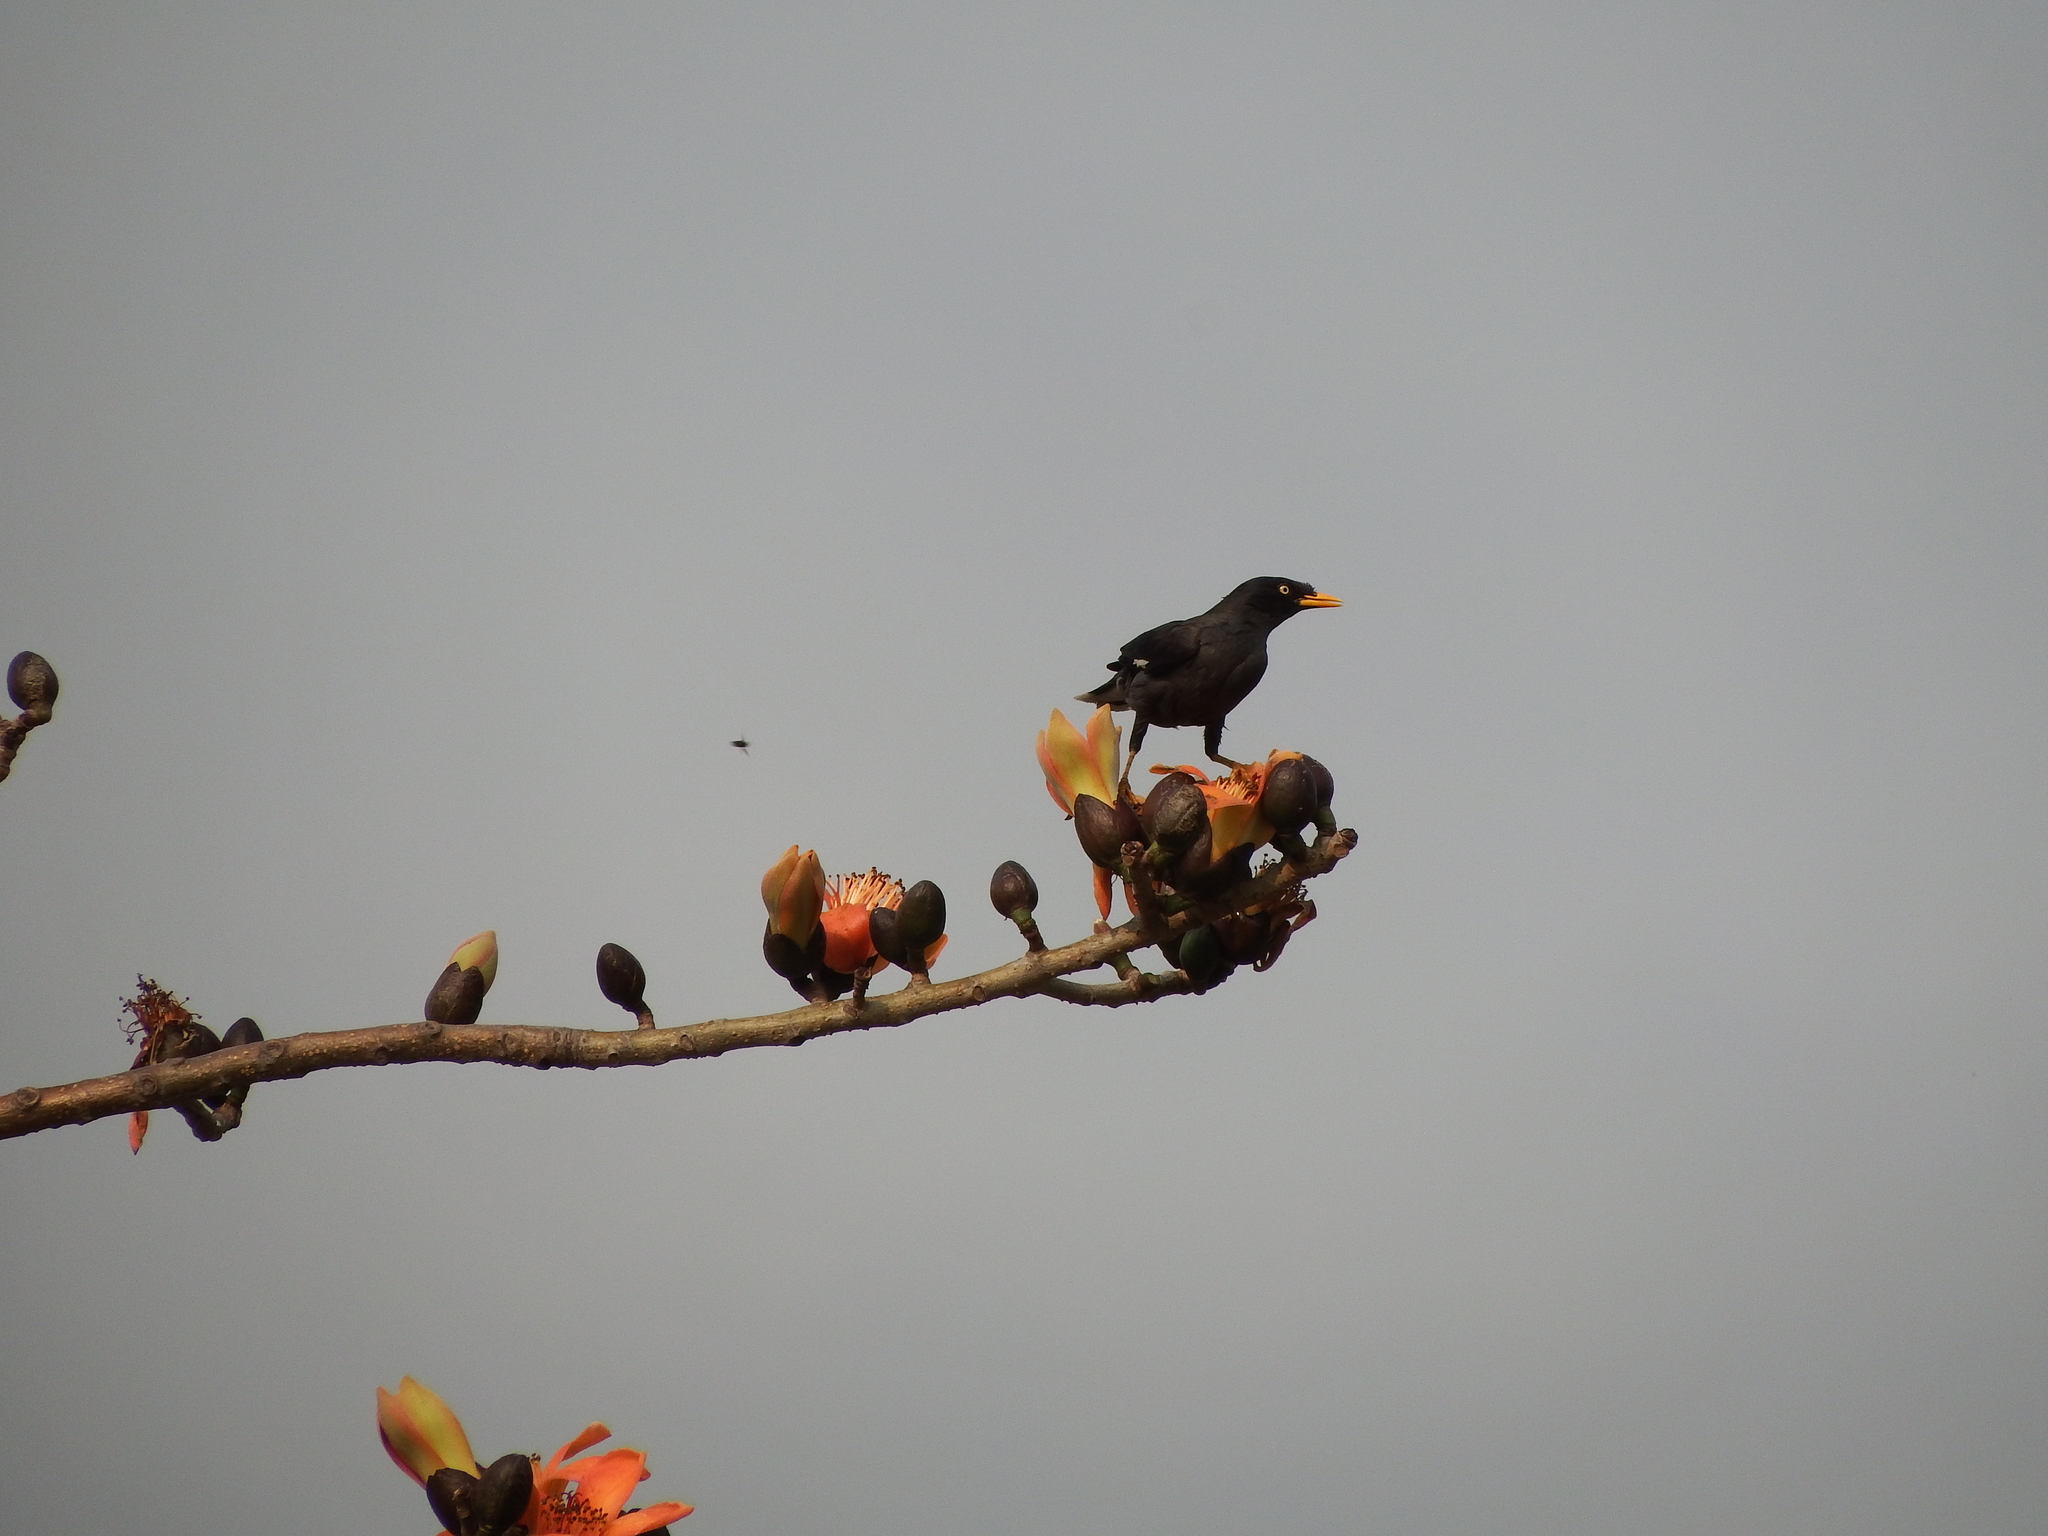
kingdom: Animalia
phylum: Chordata
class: Aves
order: Passeriformes
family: Sturnidae
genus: Acridotheres
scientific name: Acridotheres javanicus
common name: Javan myna
